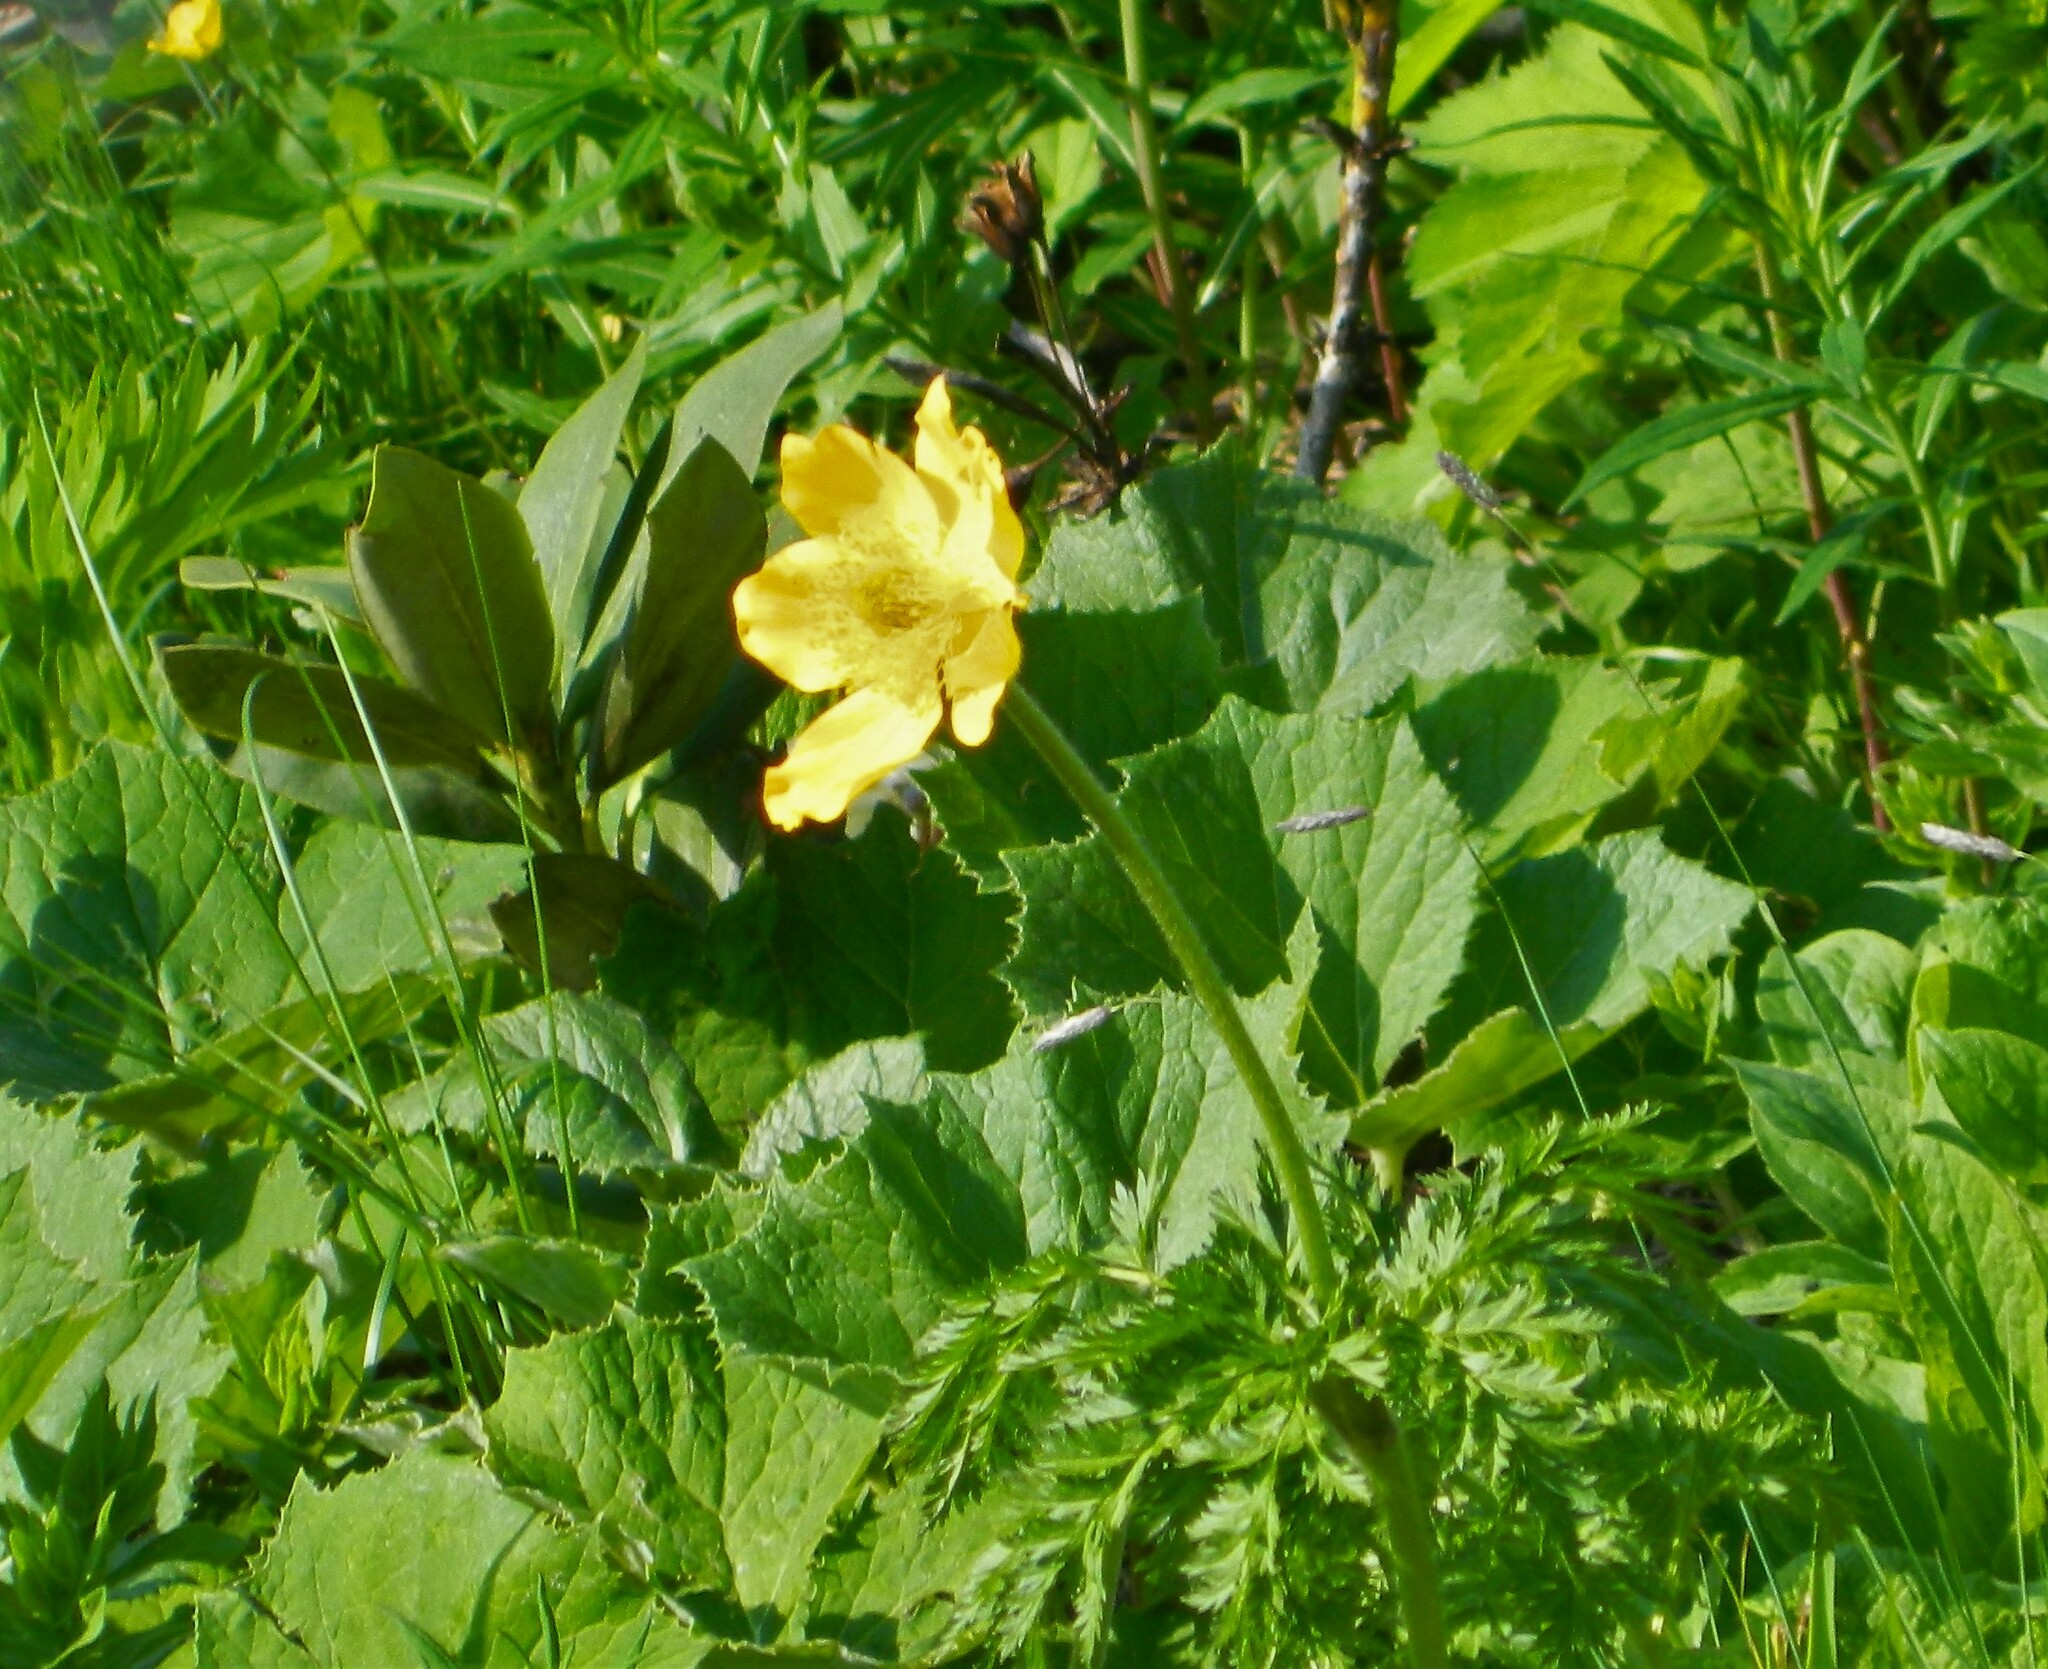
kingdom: Plantae
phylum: Tracheophyta
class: Magnoliopsida
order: Ranunculales
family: Ranunculaceae
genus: Pulsatilla
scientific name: Pulsatilla aurea
